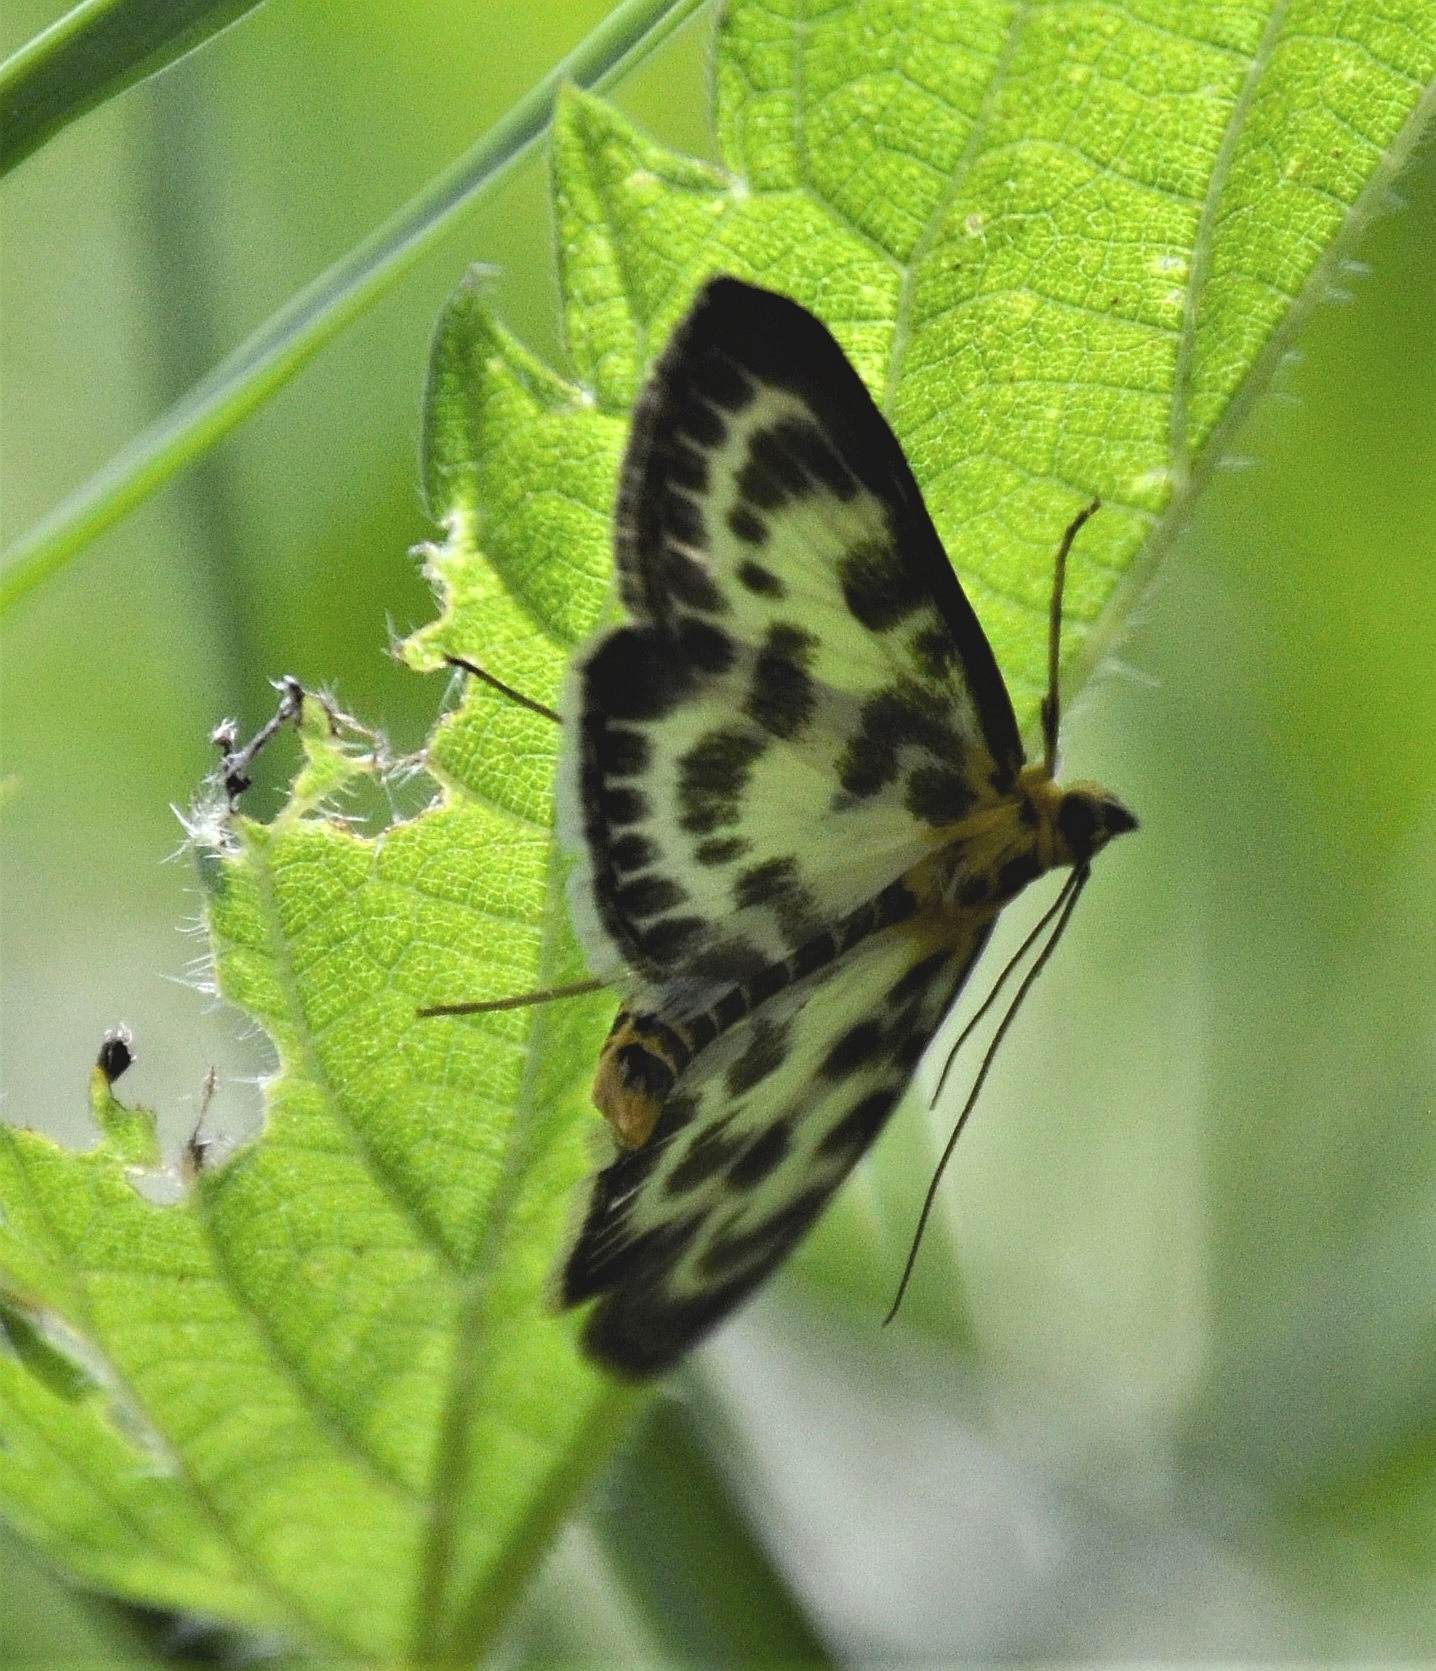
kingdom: Animalia
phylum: Arthropoda
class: Insecta
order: Lepidoptera
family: Crambidae
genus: Anania
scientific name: Anania hortulata
